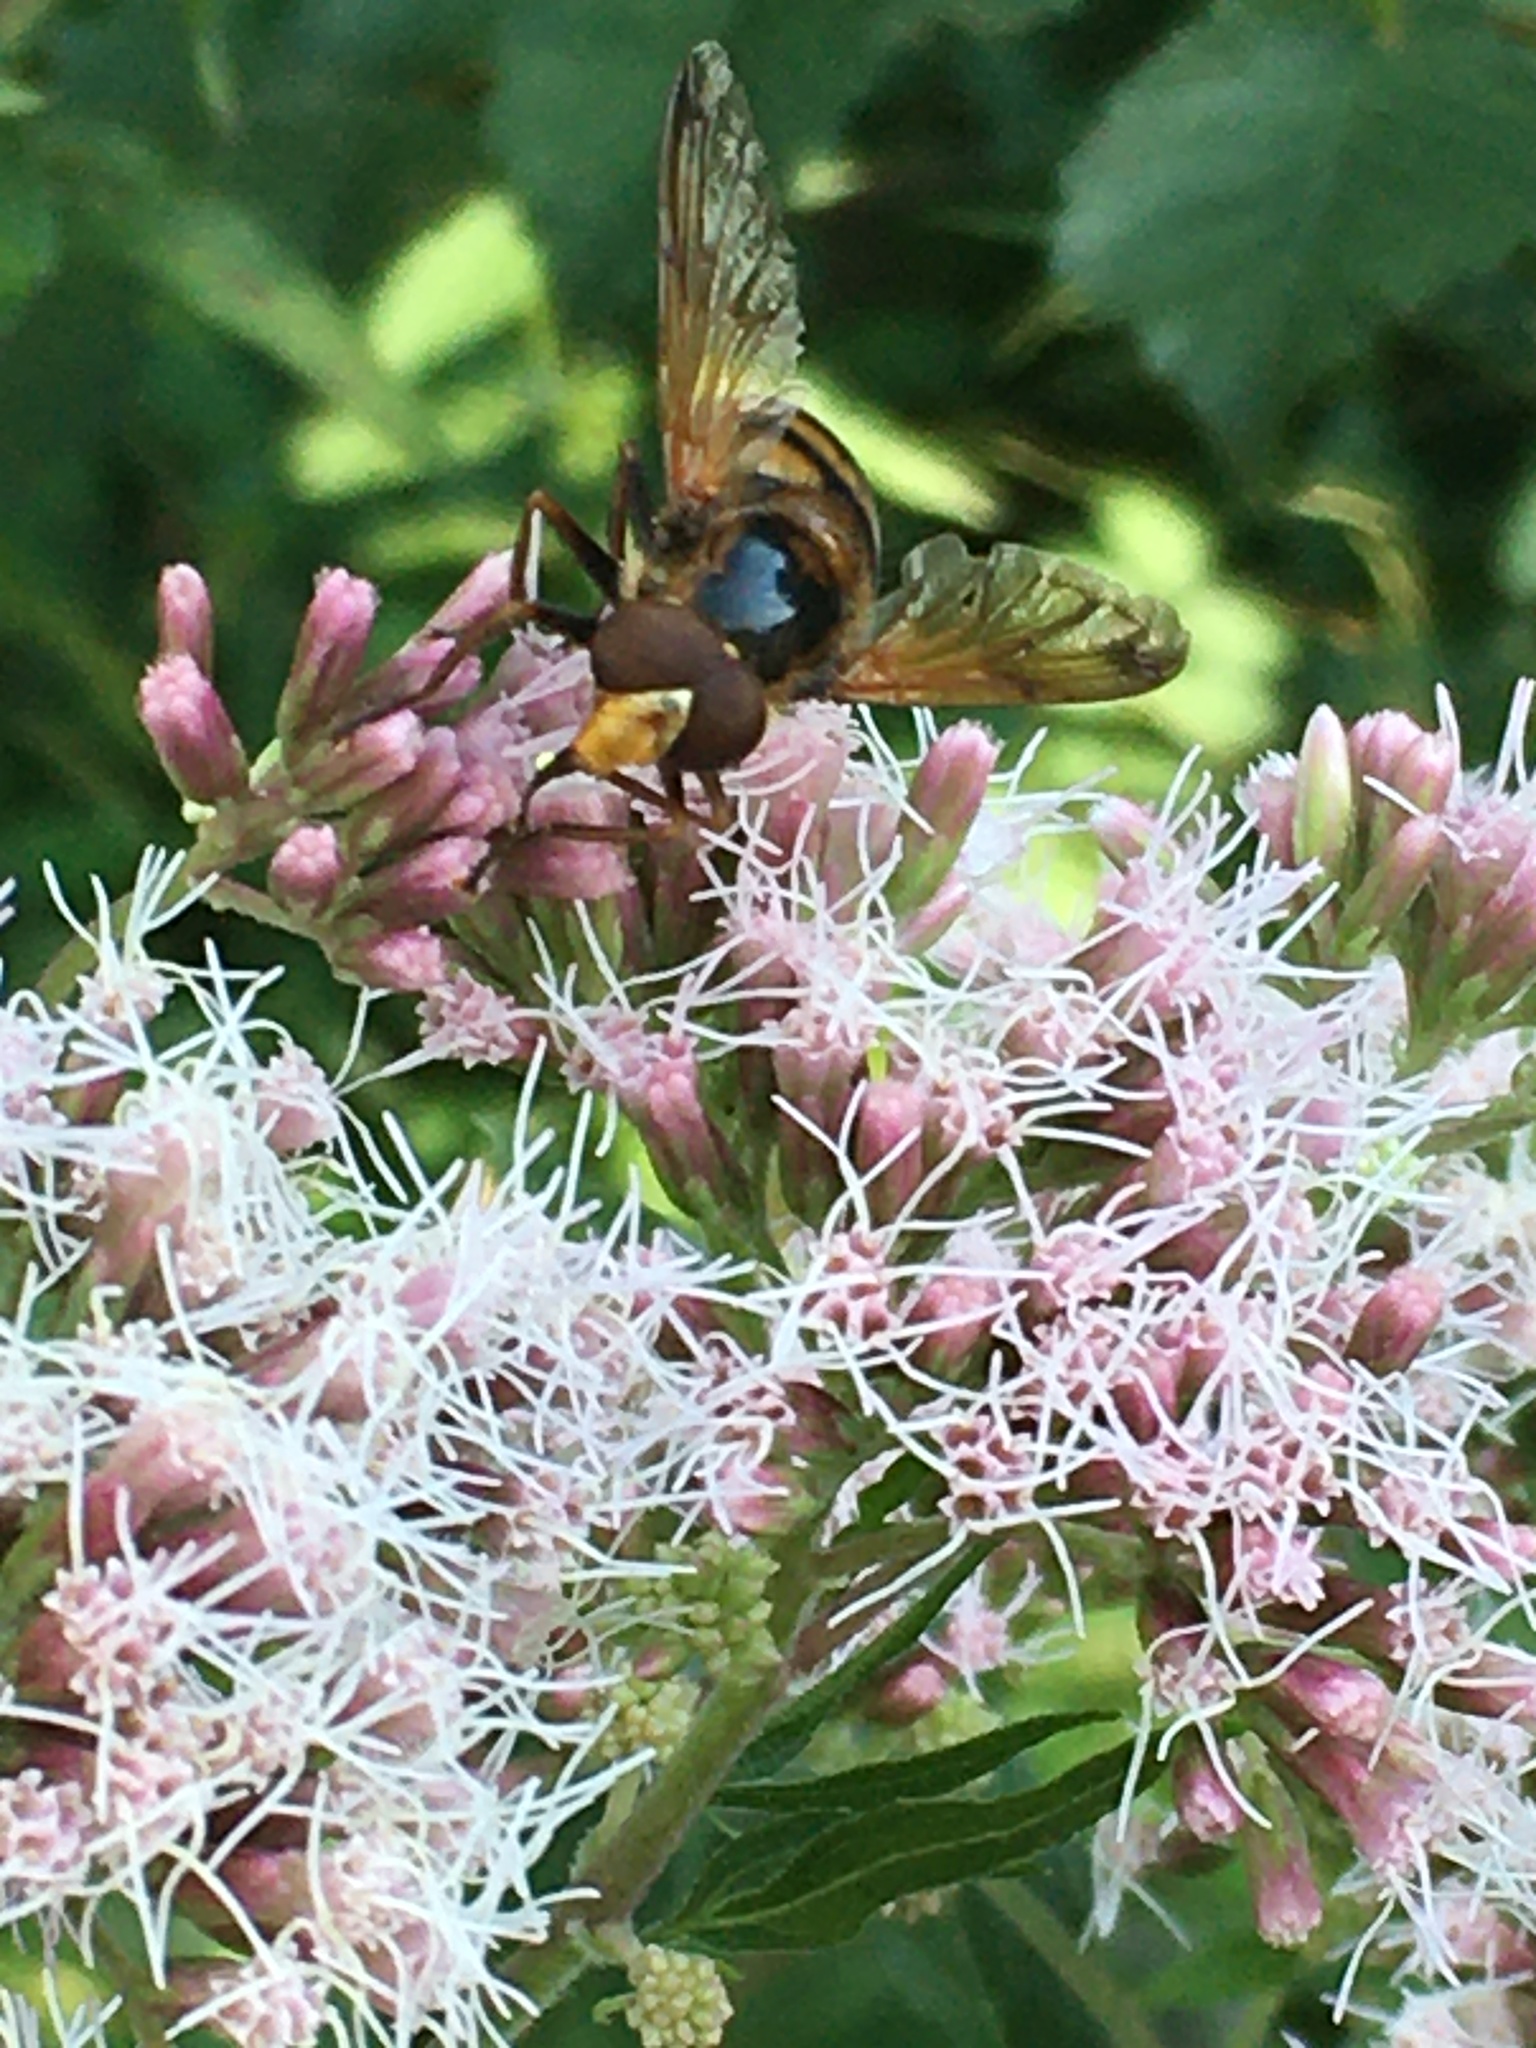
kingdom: Animalia
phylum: Arthropoda
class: Insecta
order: Diptera
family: Syrphidae
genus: Volucella
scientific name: Volucella inanis
